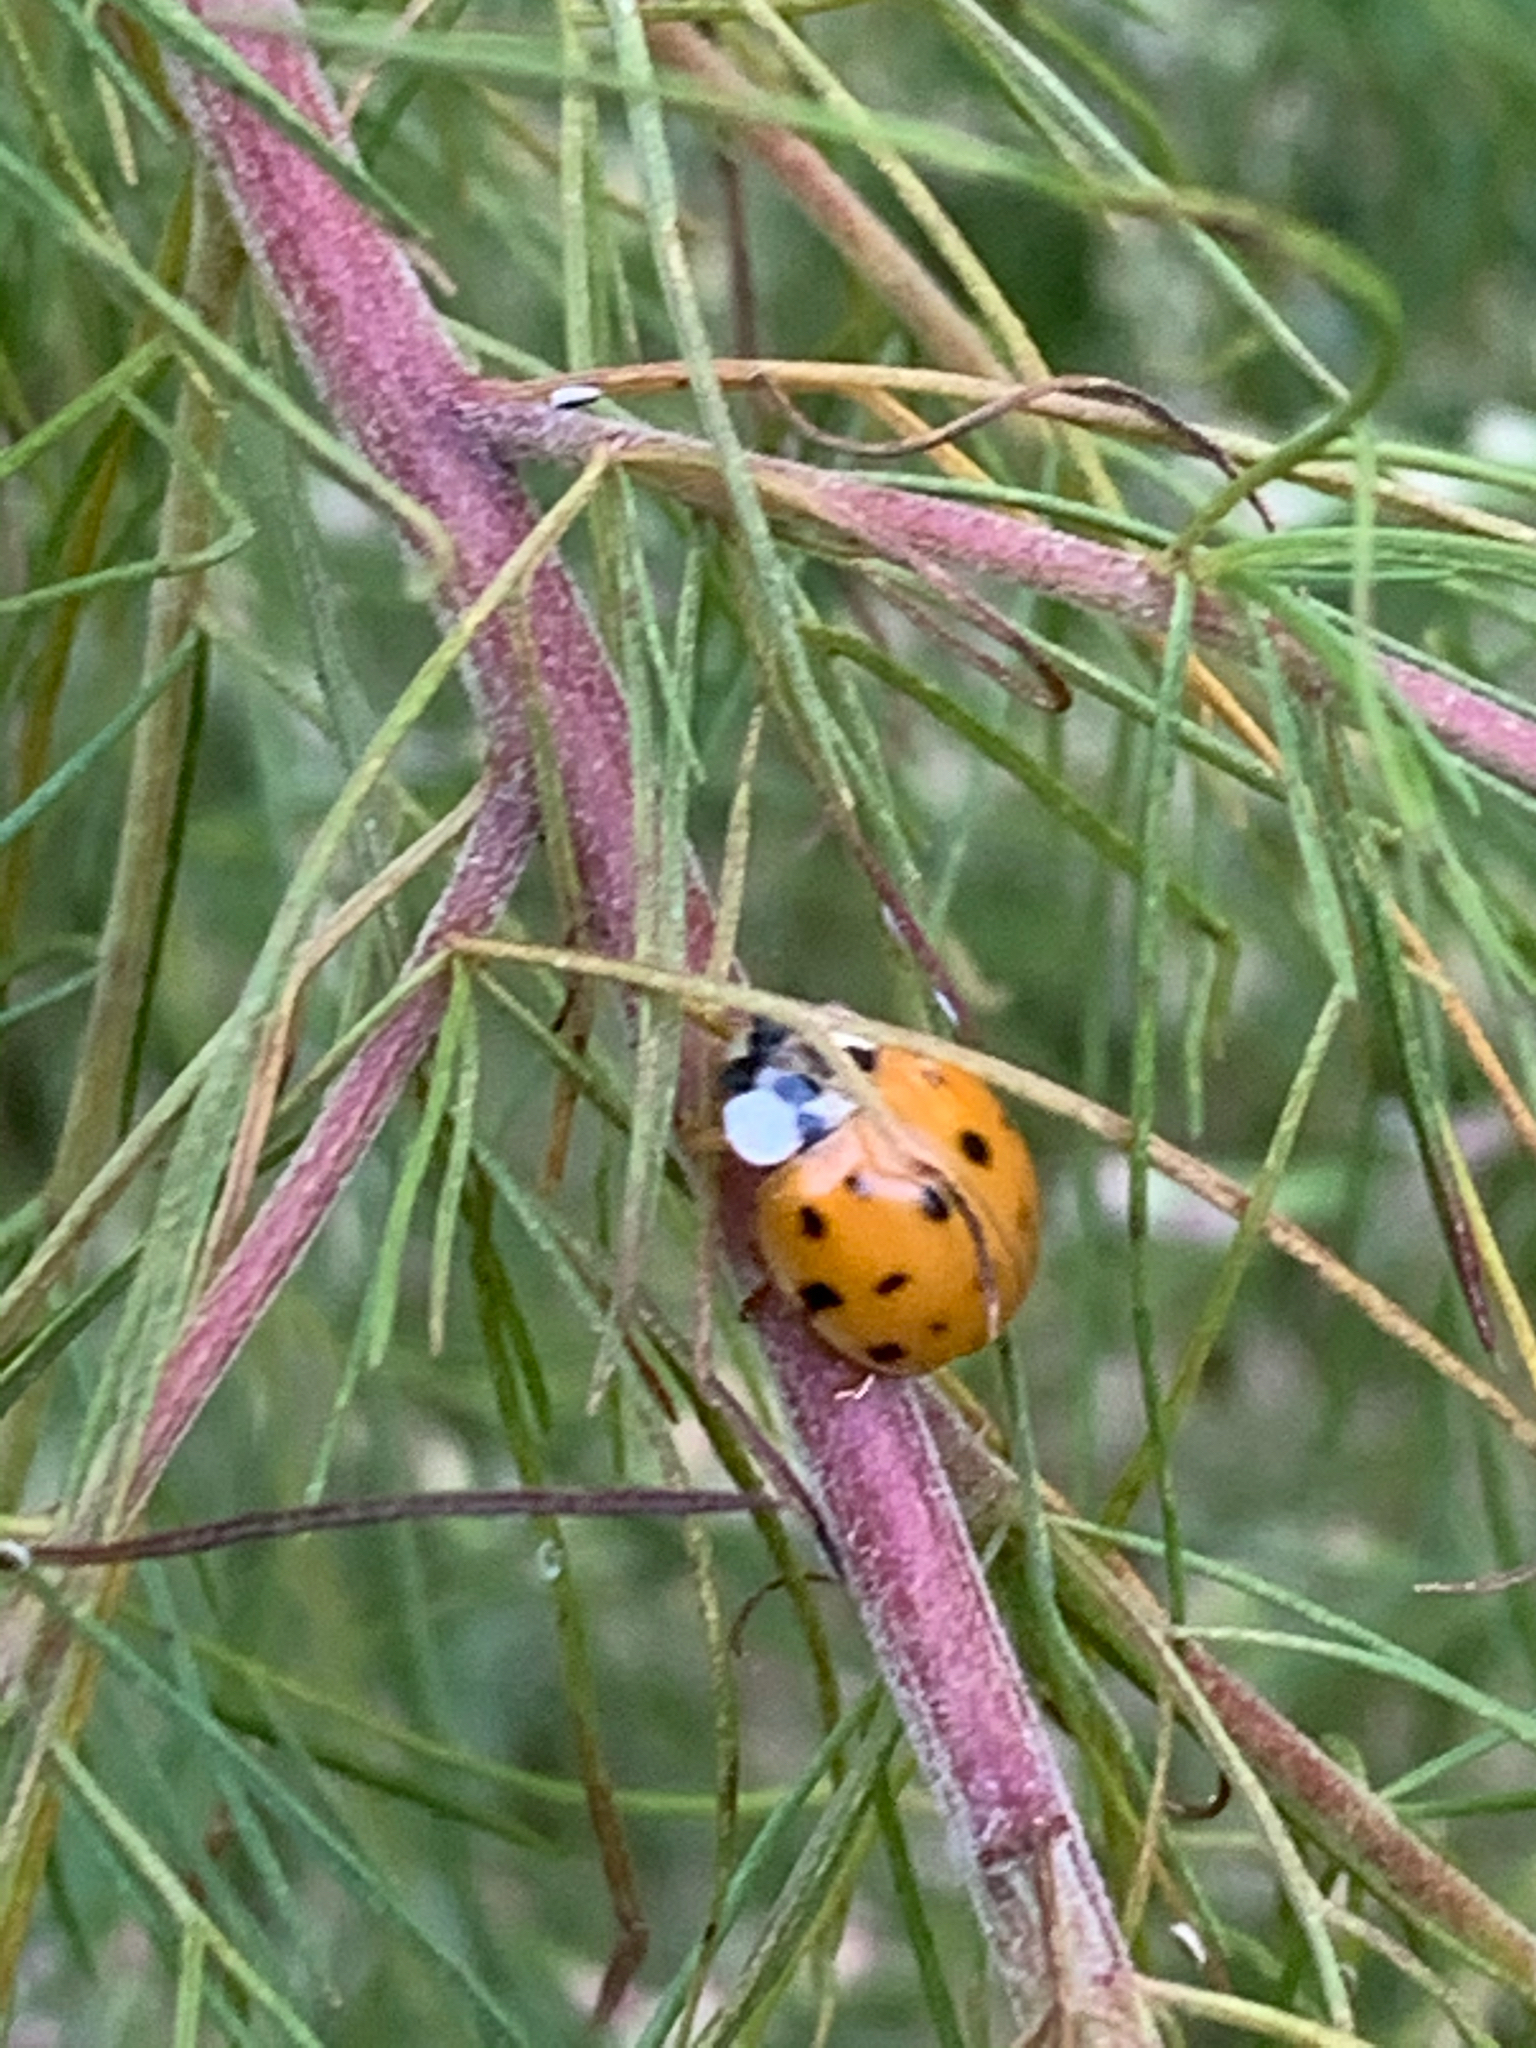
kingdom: Animalia
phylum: Arthropoda
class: Insecta
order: Coleoptera
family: Coccinellidae
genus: Harmonia
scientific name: Harmonia axyridis
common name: Harlequin ladybird
